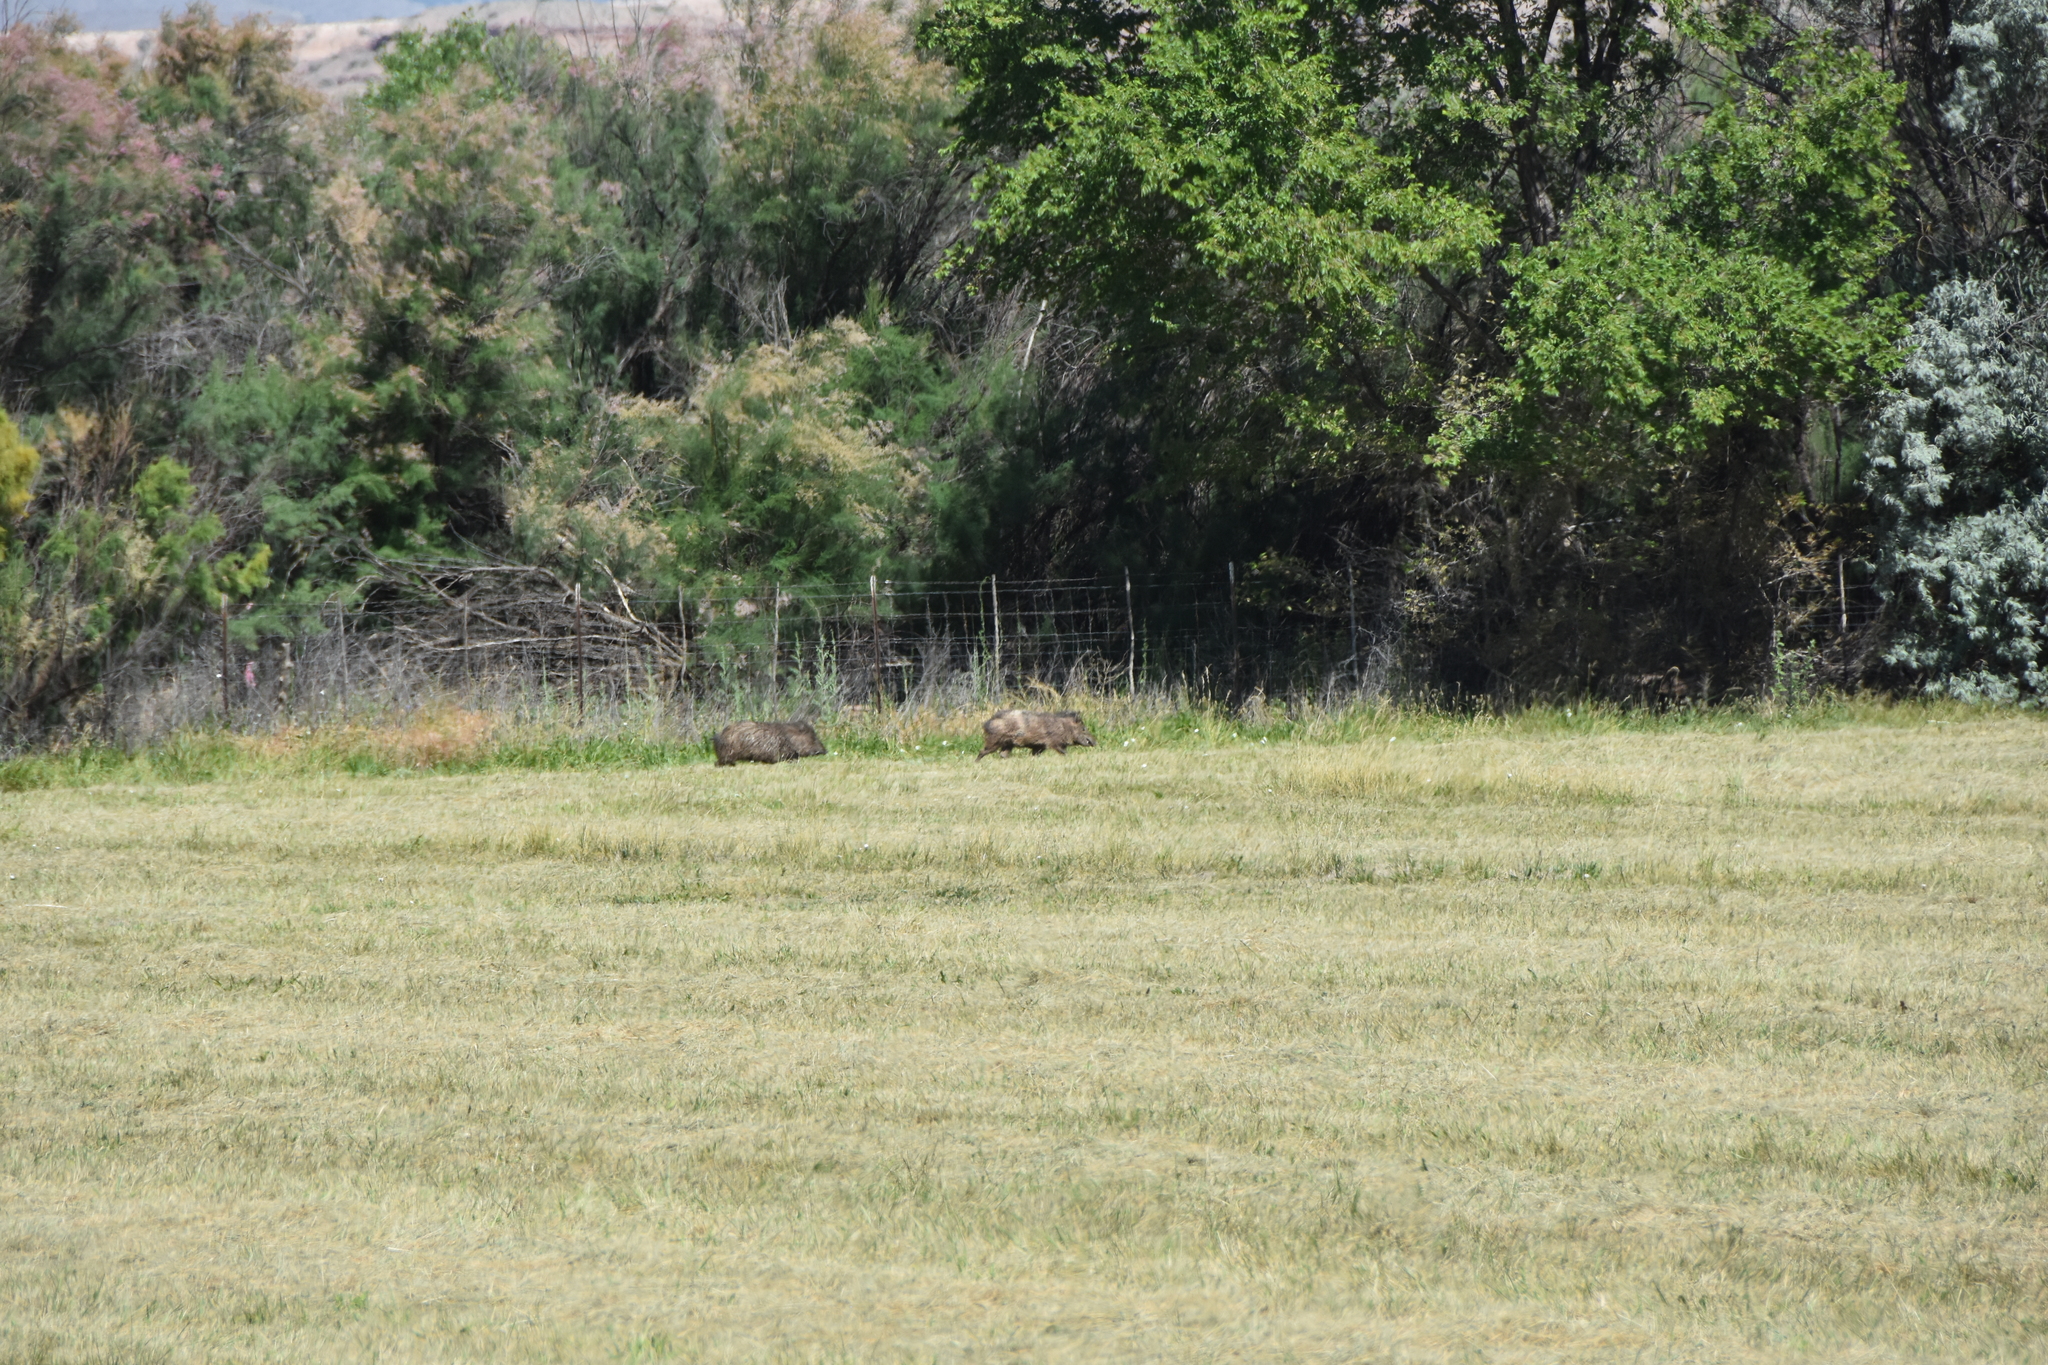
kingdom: Animalia
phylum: Chordata
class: Mammalia
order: Artiodactyla
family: Tayassuidae
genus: Pecari
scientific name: Pecari tajacu
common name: Collared peccary
